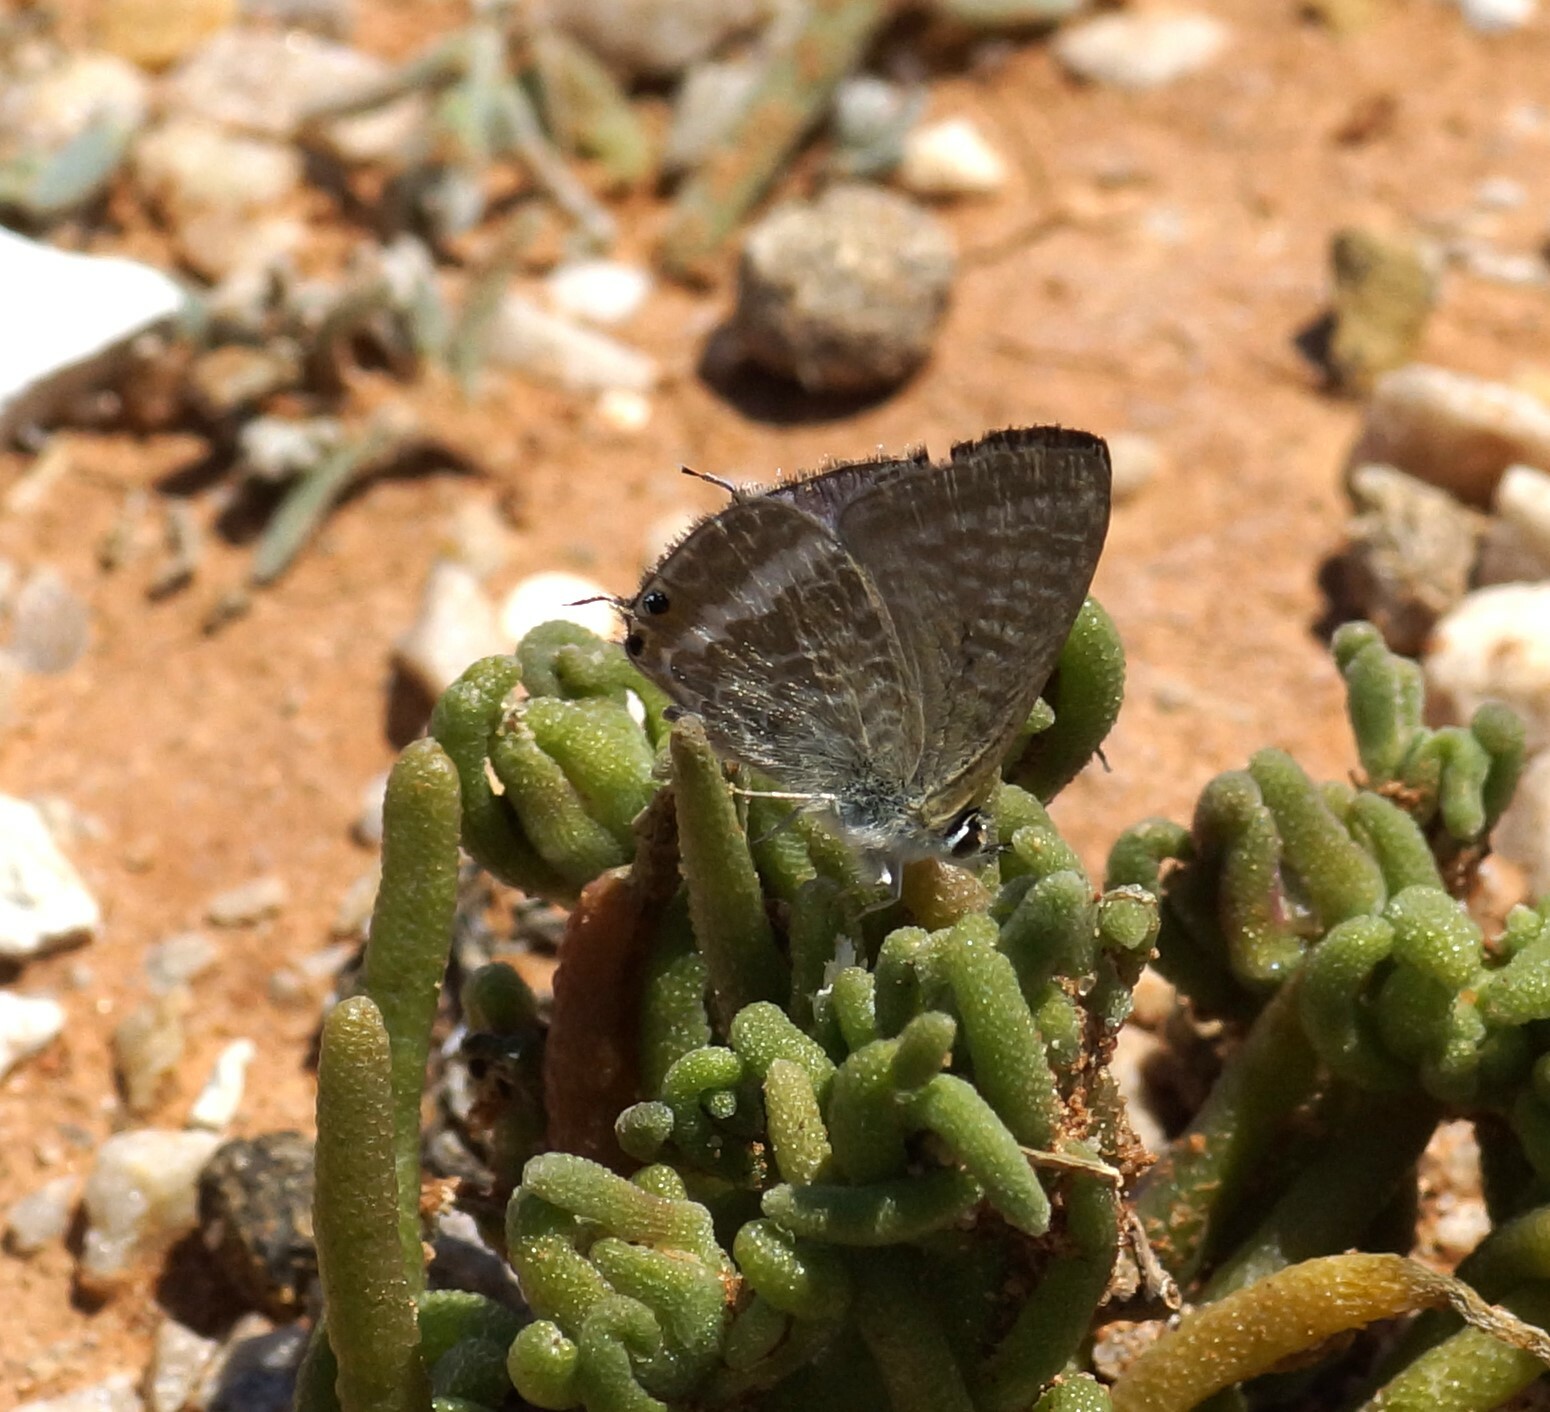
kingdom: Animalia
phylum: Arthropoda
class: Insecta
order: Lepidoptera
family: Lycaenidae
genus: Lampides
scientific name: Lampides boeticus
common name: Long-tailed blue
